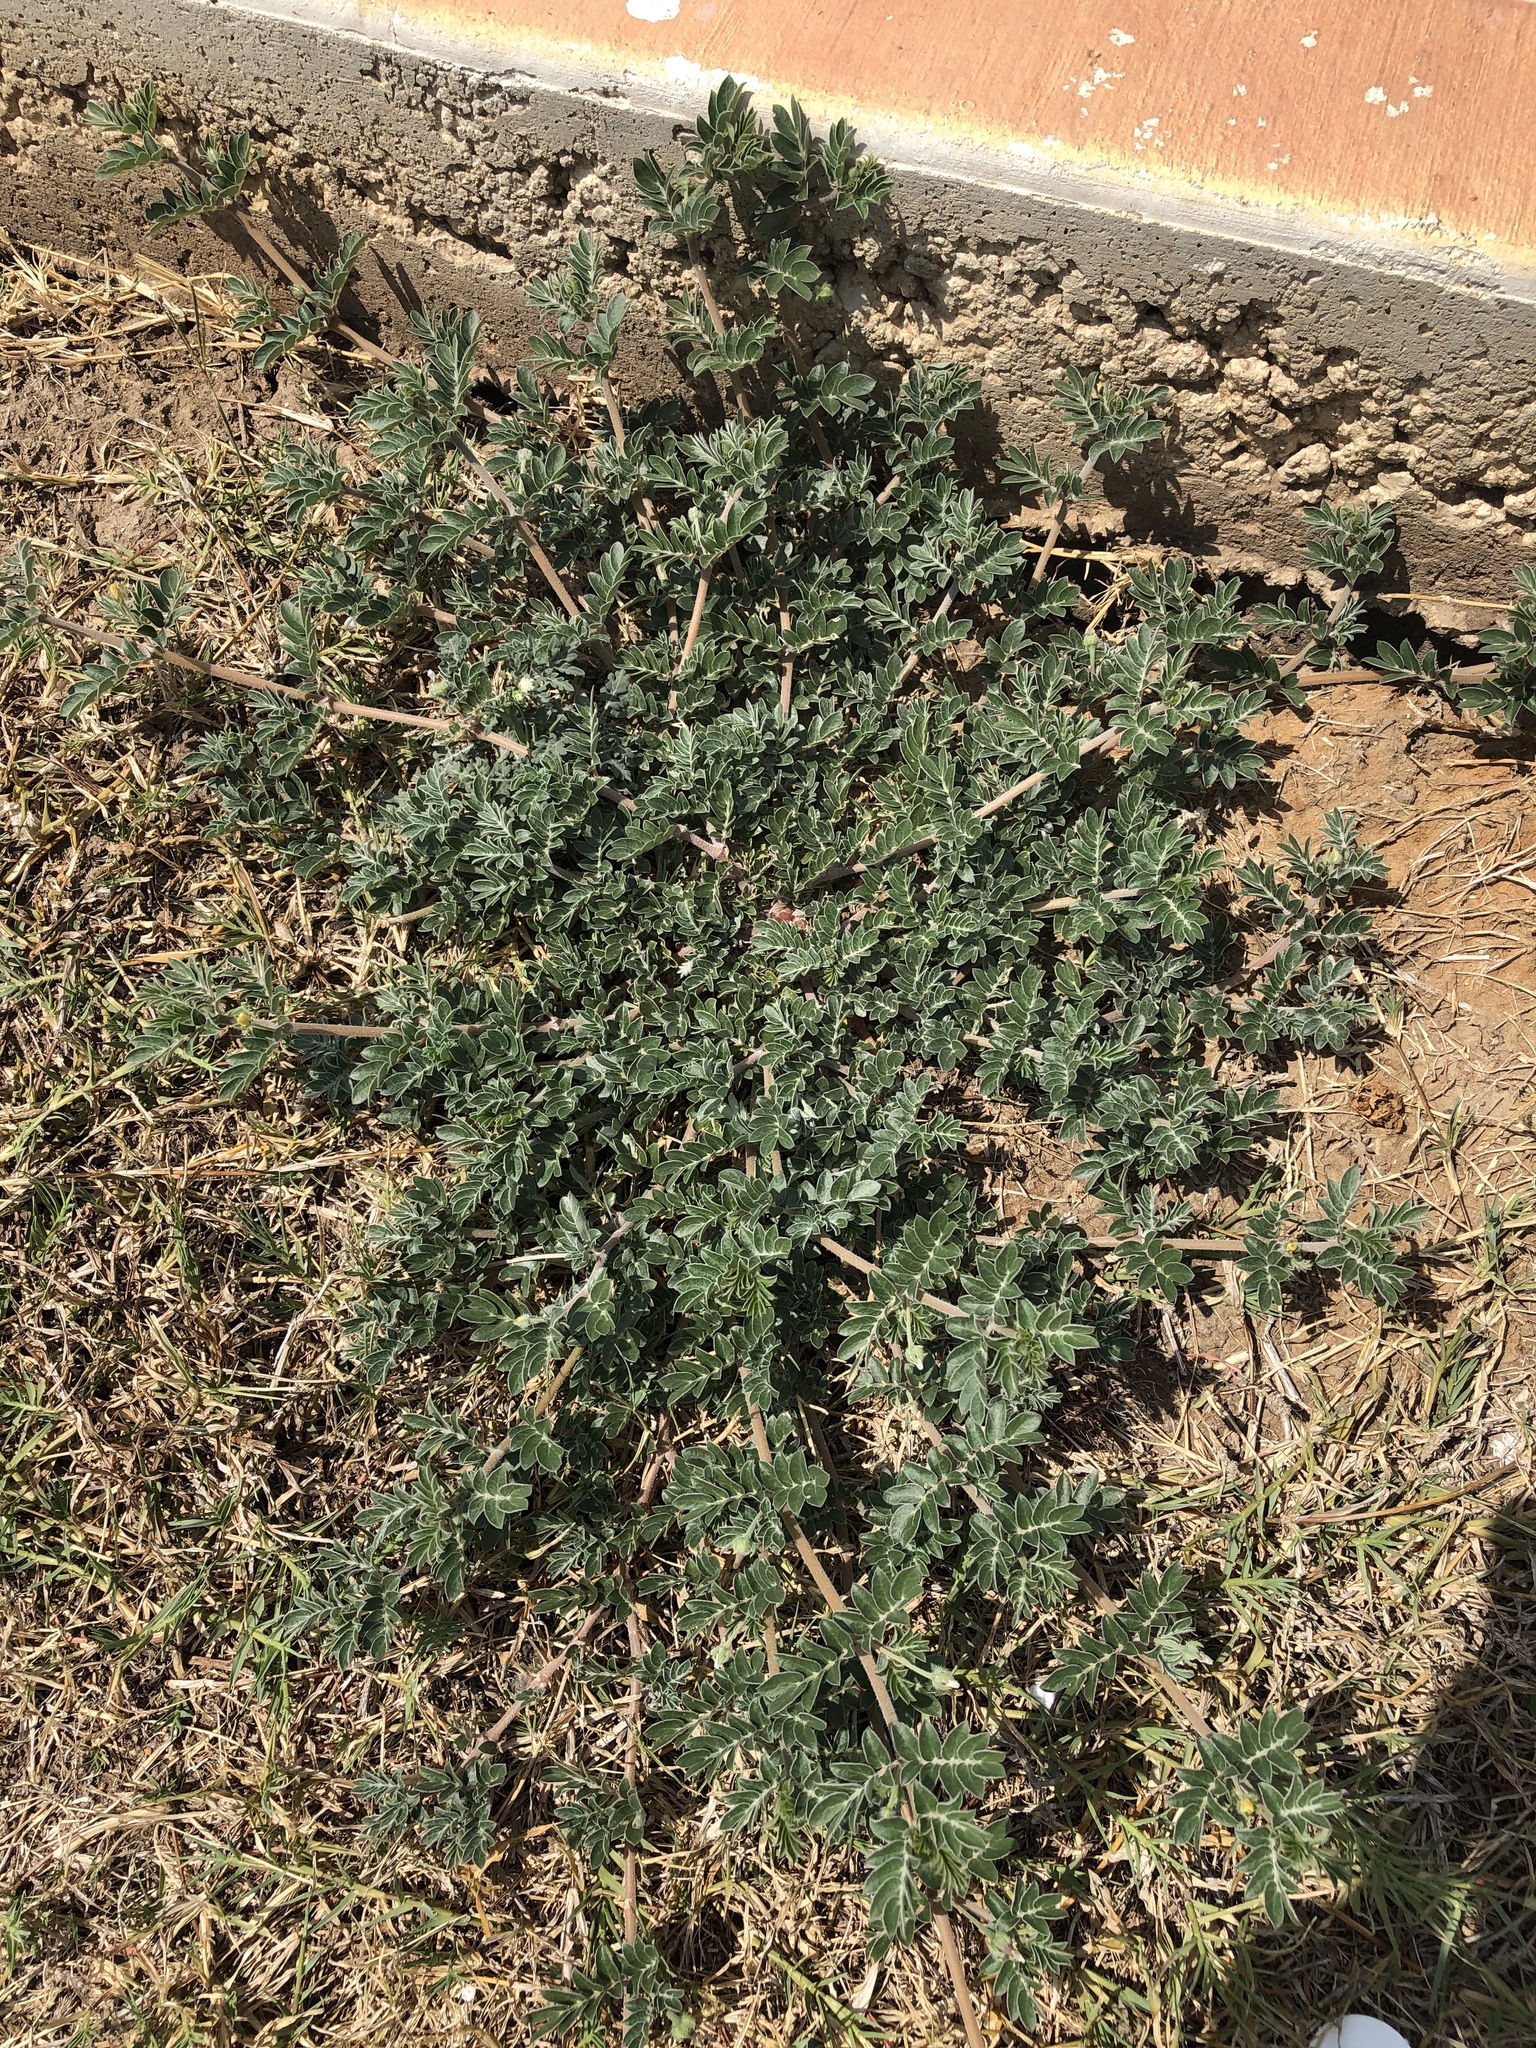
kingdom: Plantae
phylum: Tracheophyta
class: Magnoliopsida
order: Zygophyllales
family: Zygophyllaceae
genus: Kallstroemia
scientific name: Kallstroemia parviflora
